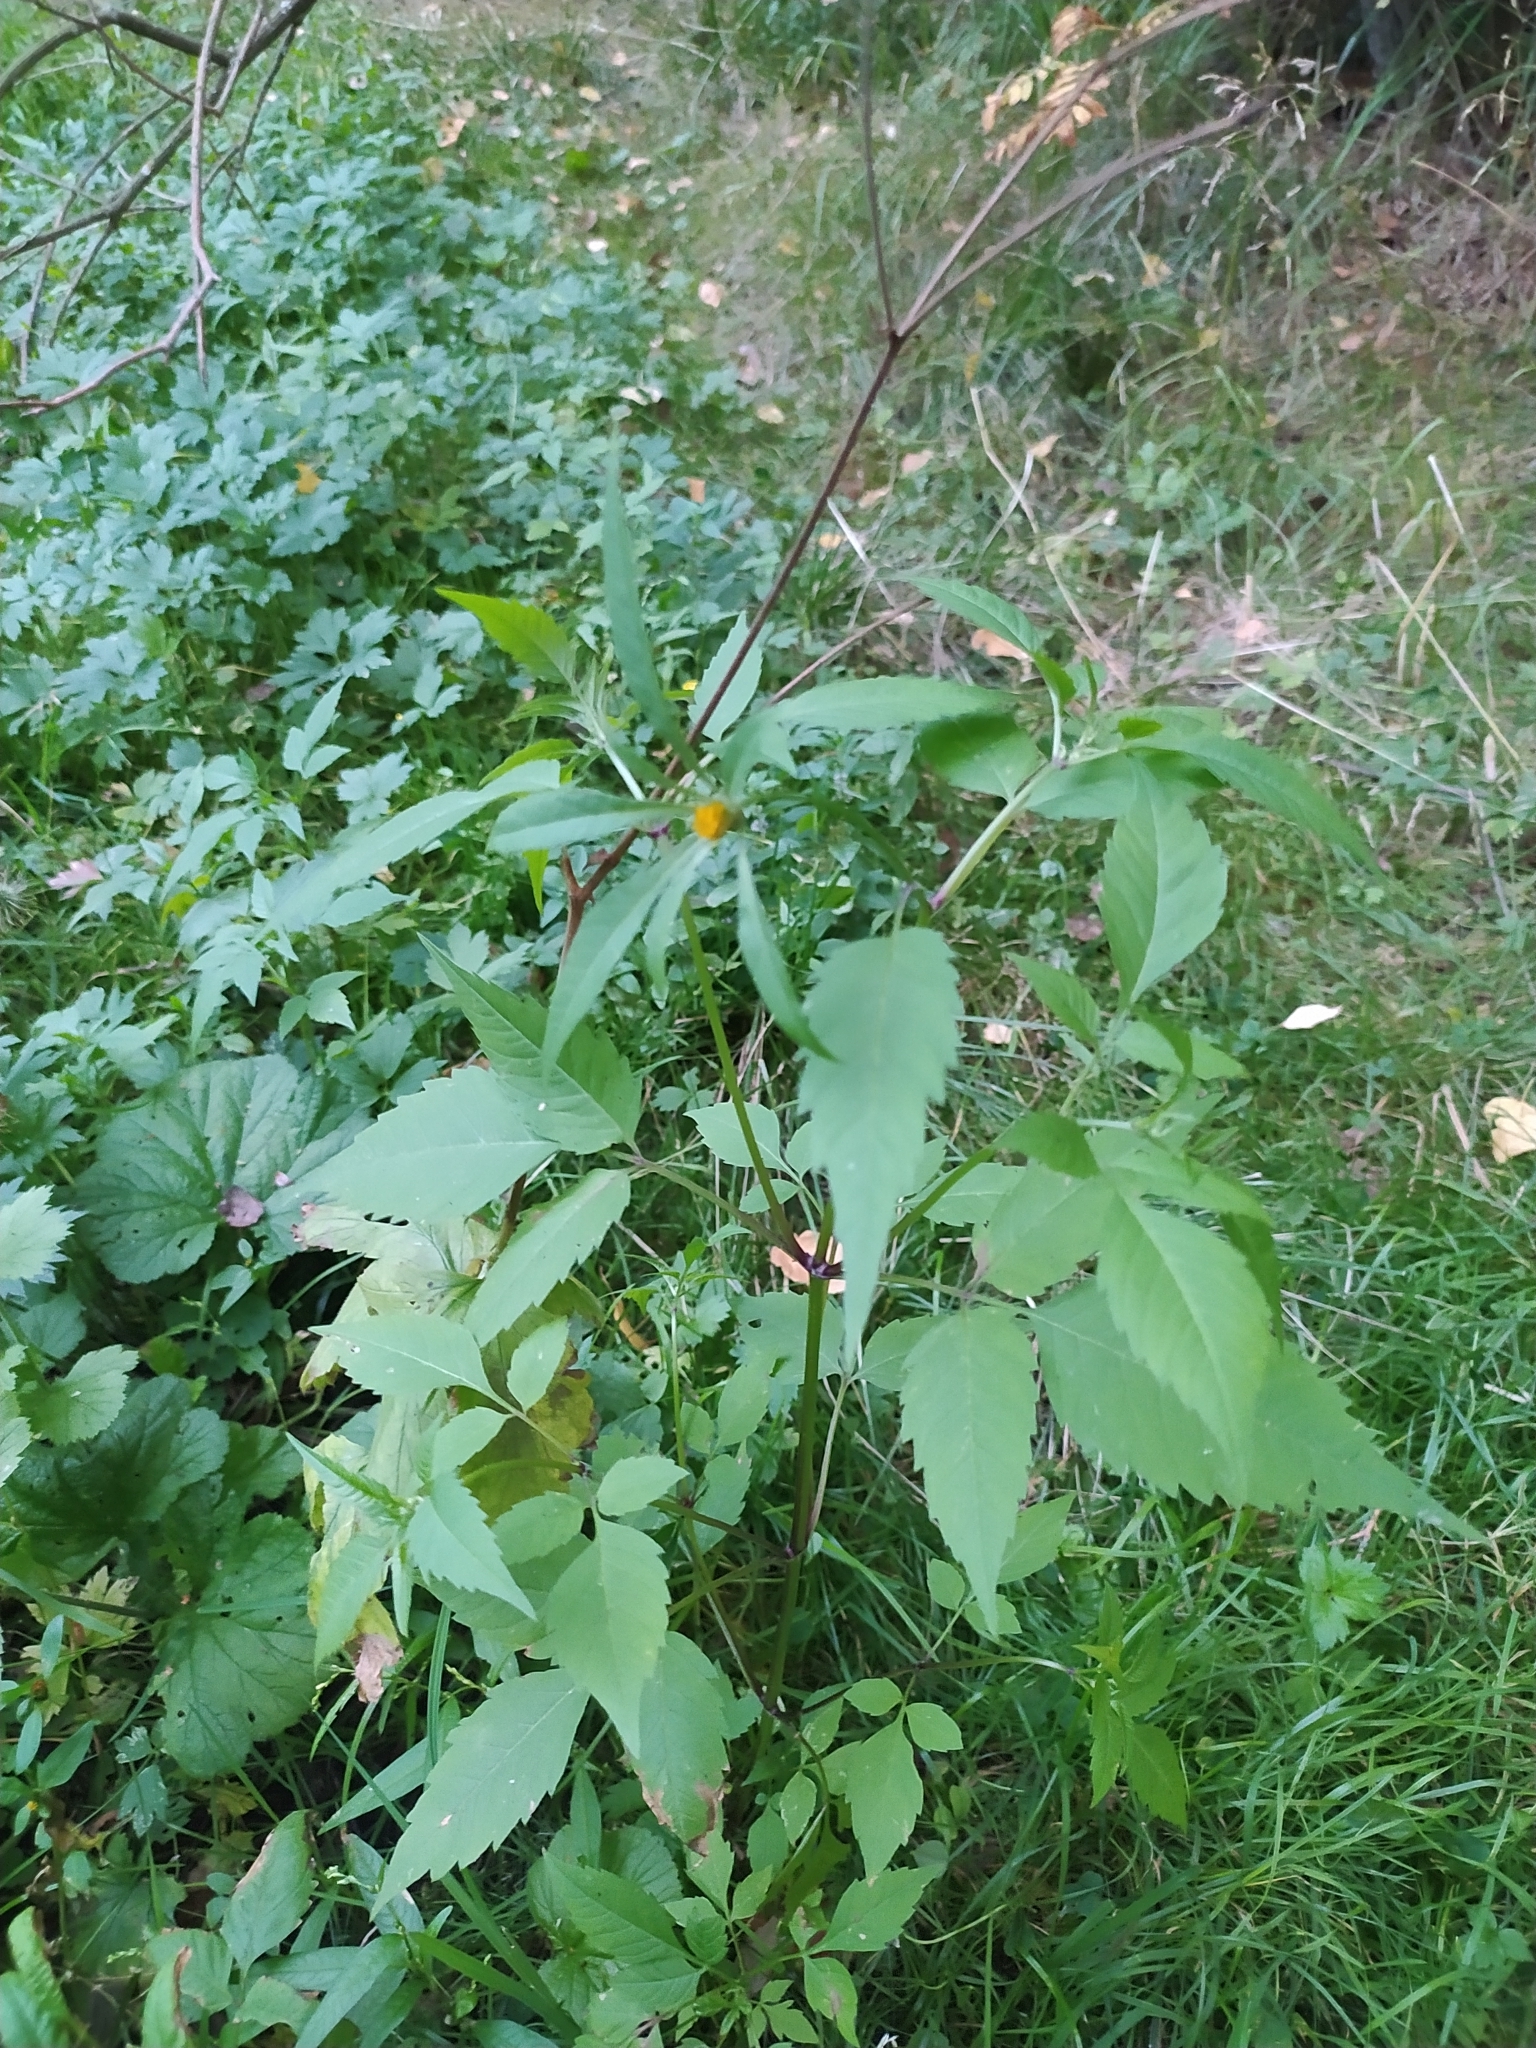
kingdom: Plantae
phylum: Tracheophyta
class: Magnoliopsida
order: Asterales
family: Asteraceae
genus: Bidens
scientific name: Bidens frondosa
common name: Beggarticks
